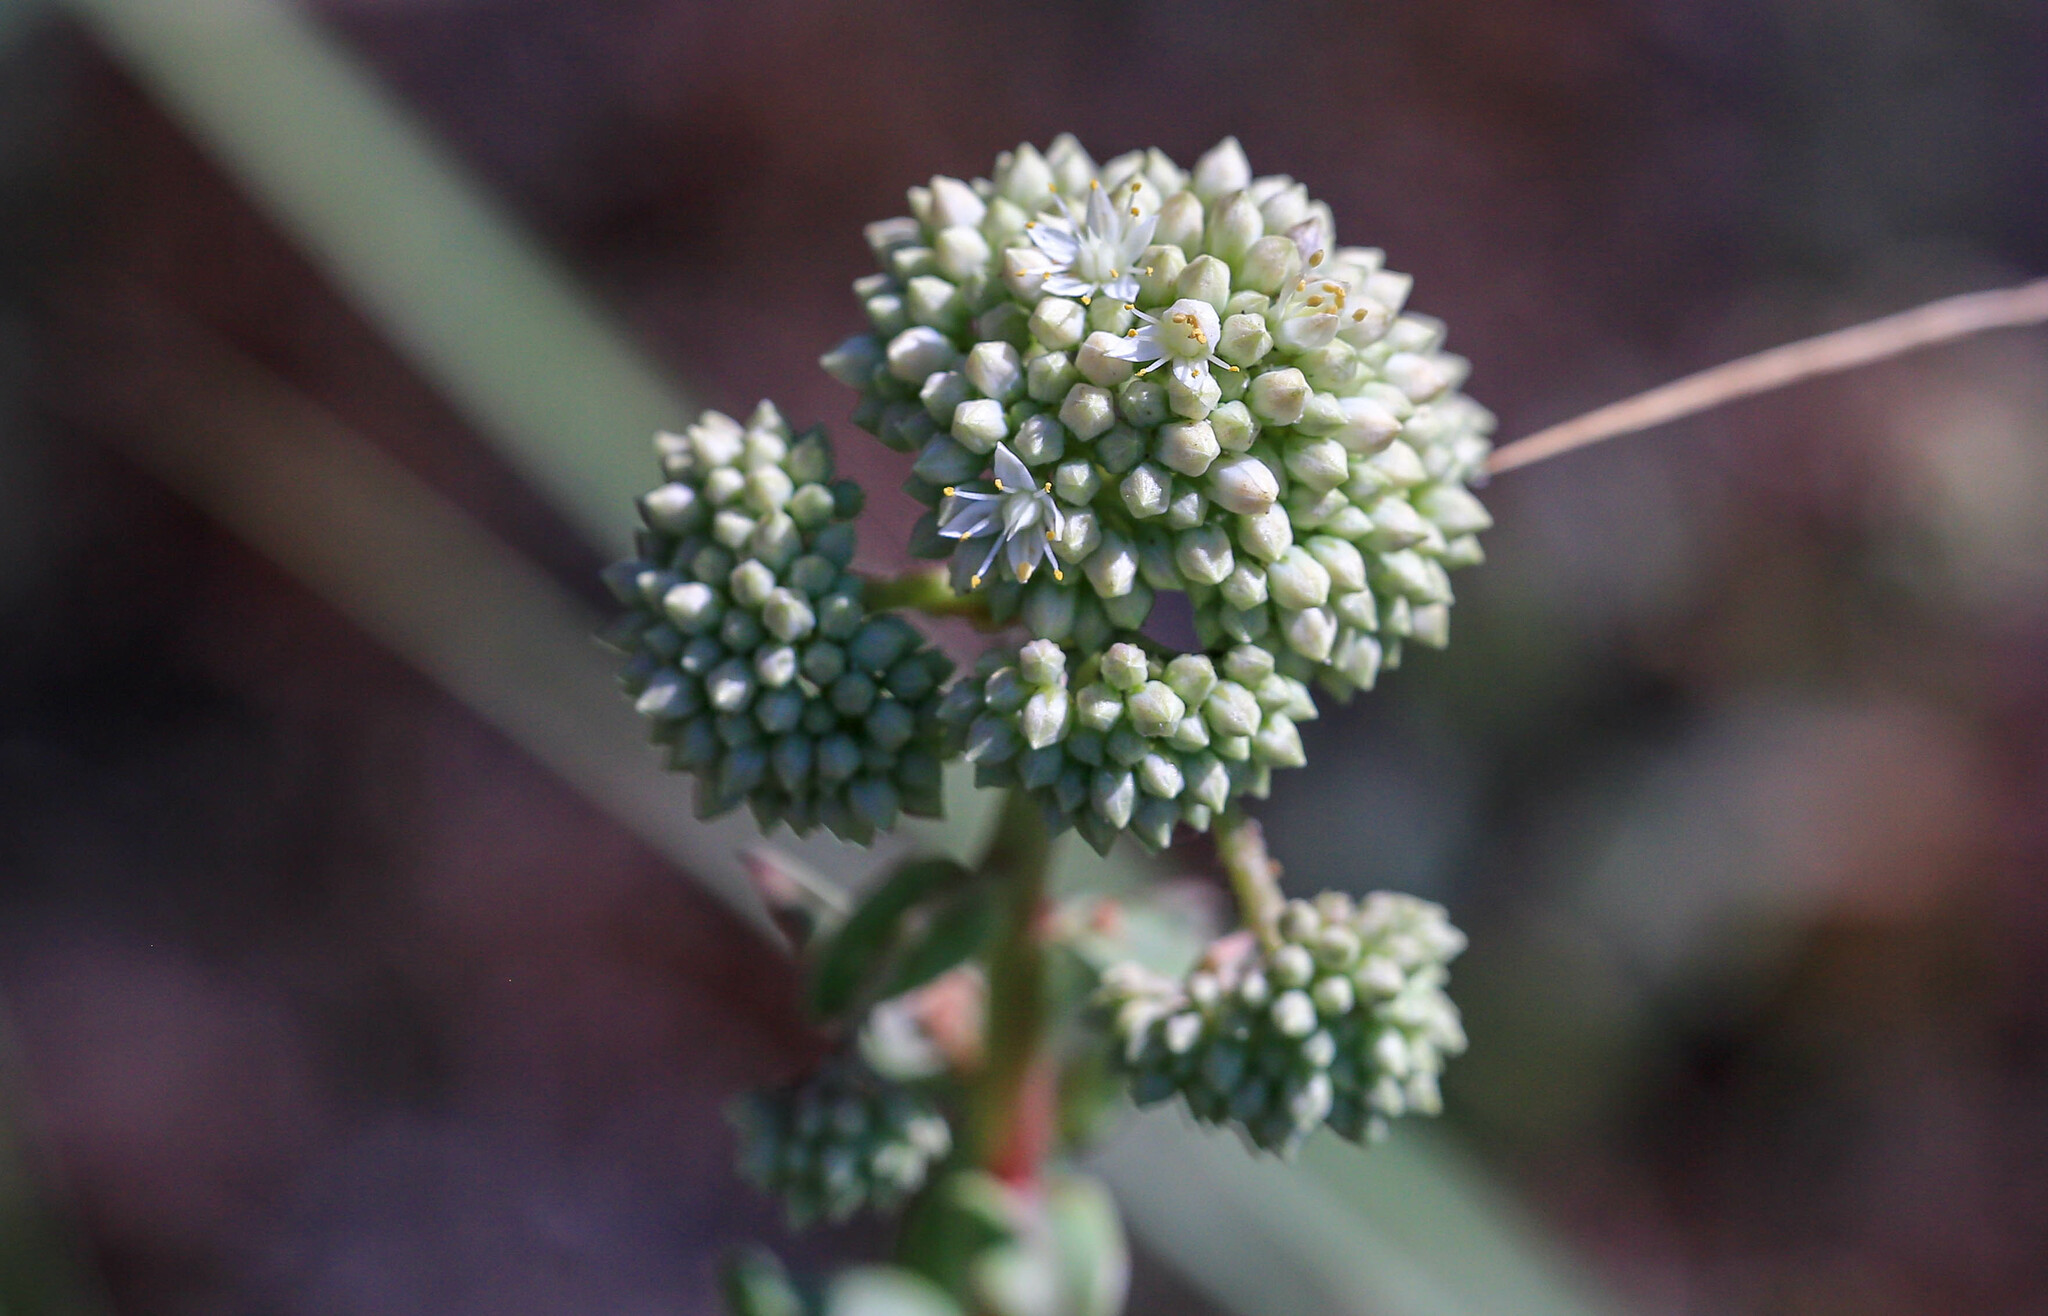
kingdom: Plantae
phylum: Tracheophyta
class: Magnoliopsida
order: Saxifragales
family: Crassulaceae
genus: Hylotelephium
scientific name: Hylotelephium maximum
